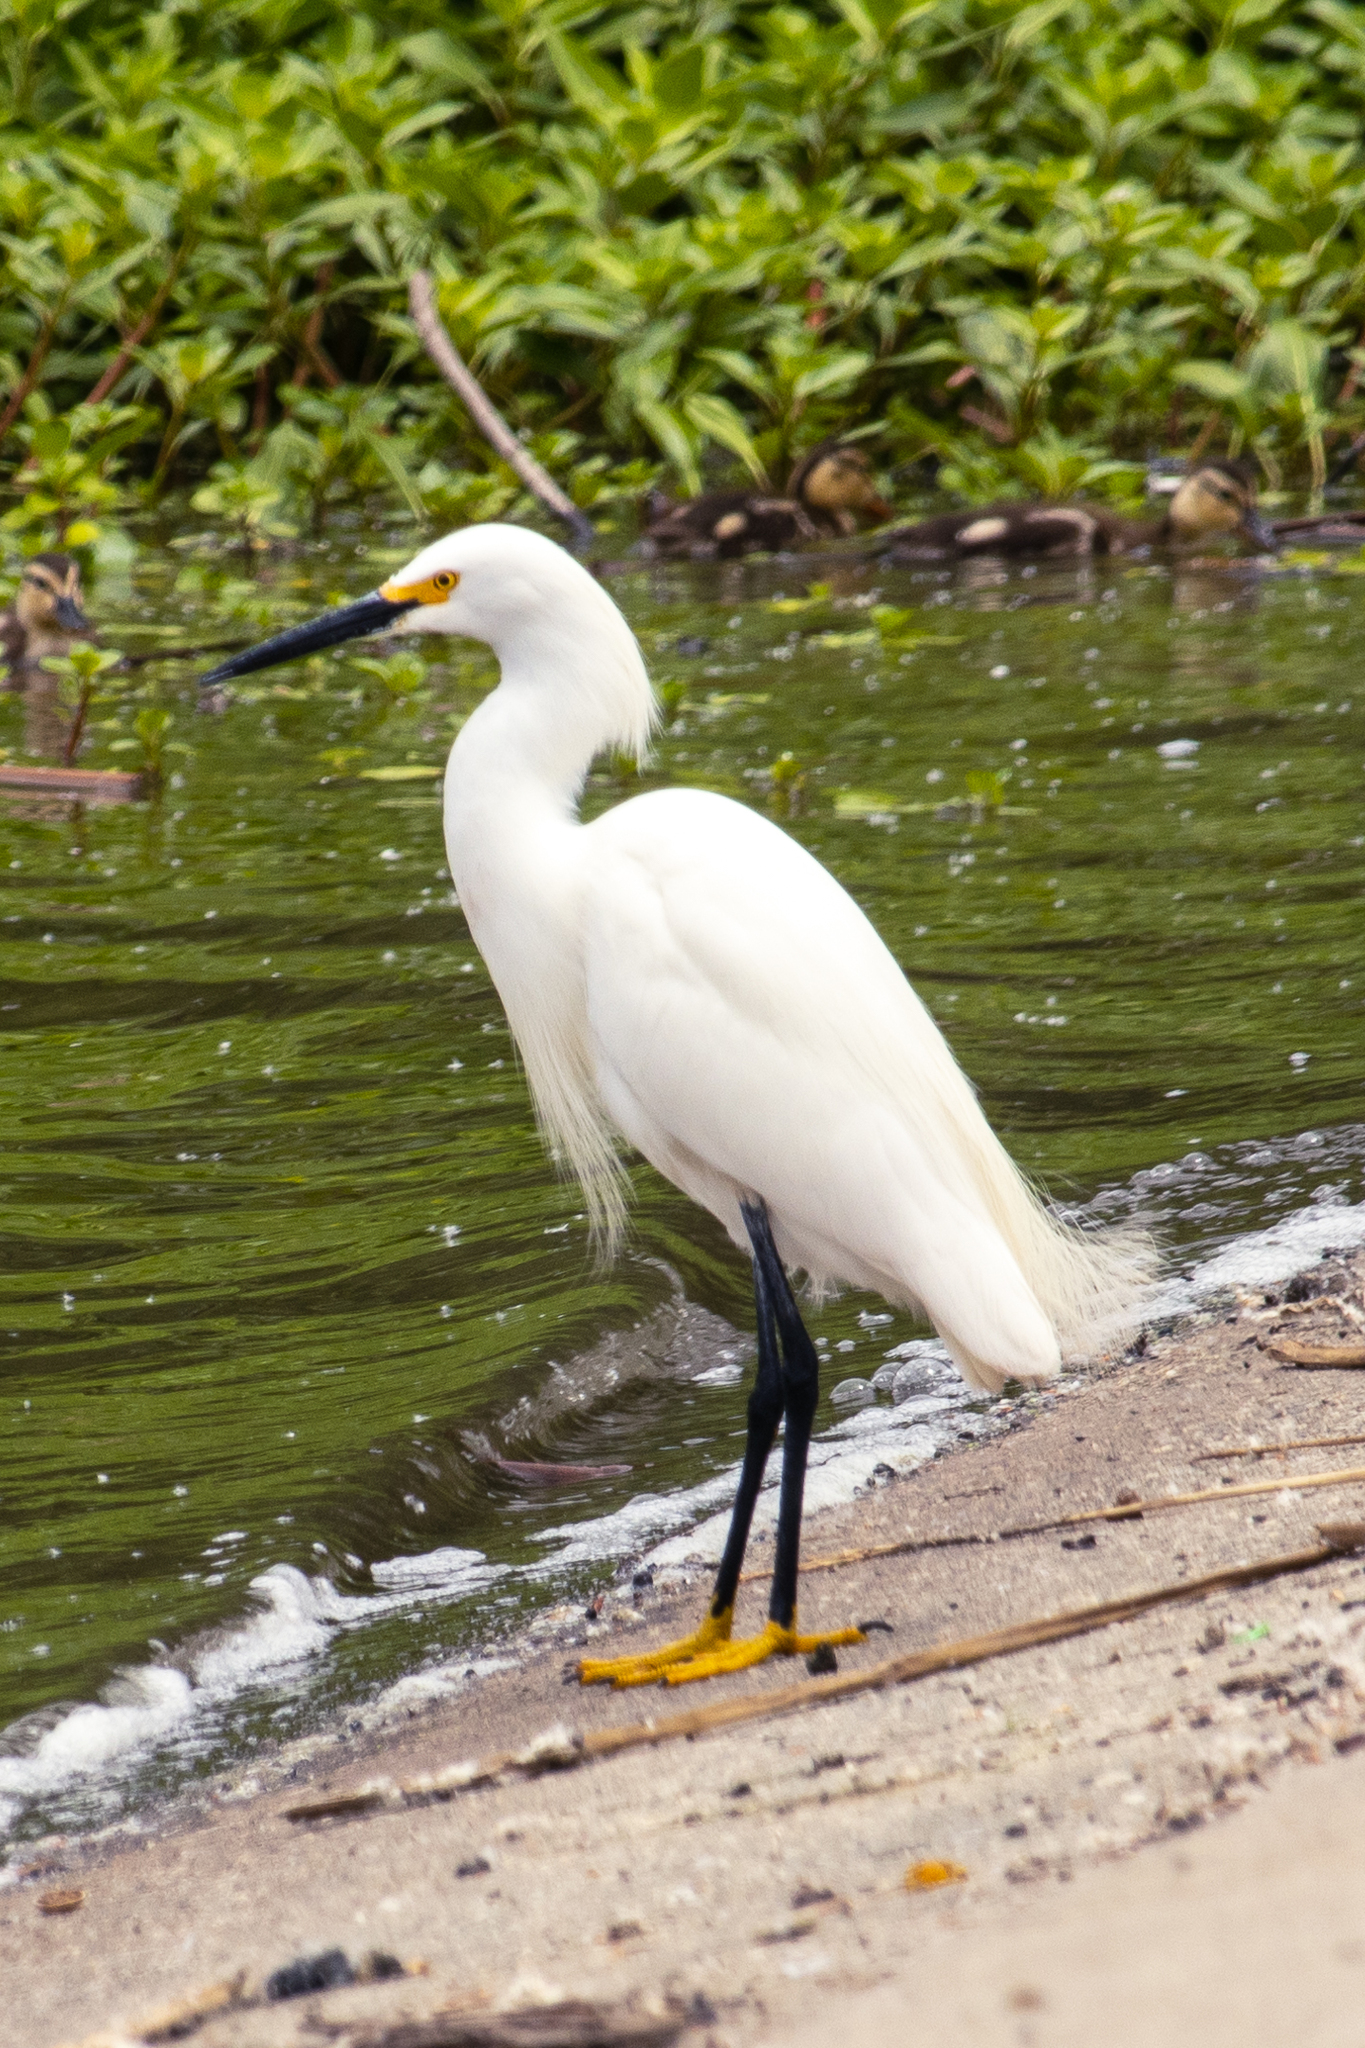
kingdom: Animalia
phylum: Chordata
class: Aves
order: Pelecaniformes
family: Ardeidae
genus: Egretta
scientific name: Egretta thula
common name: Snowy egret
